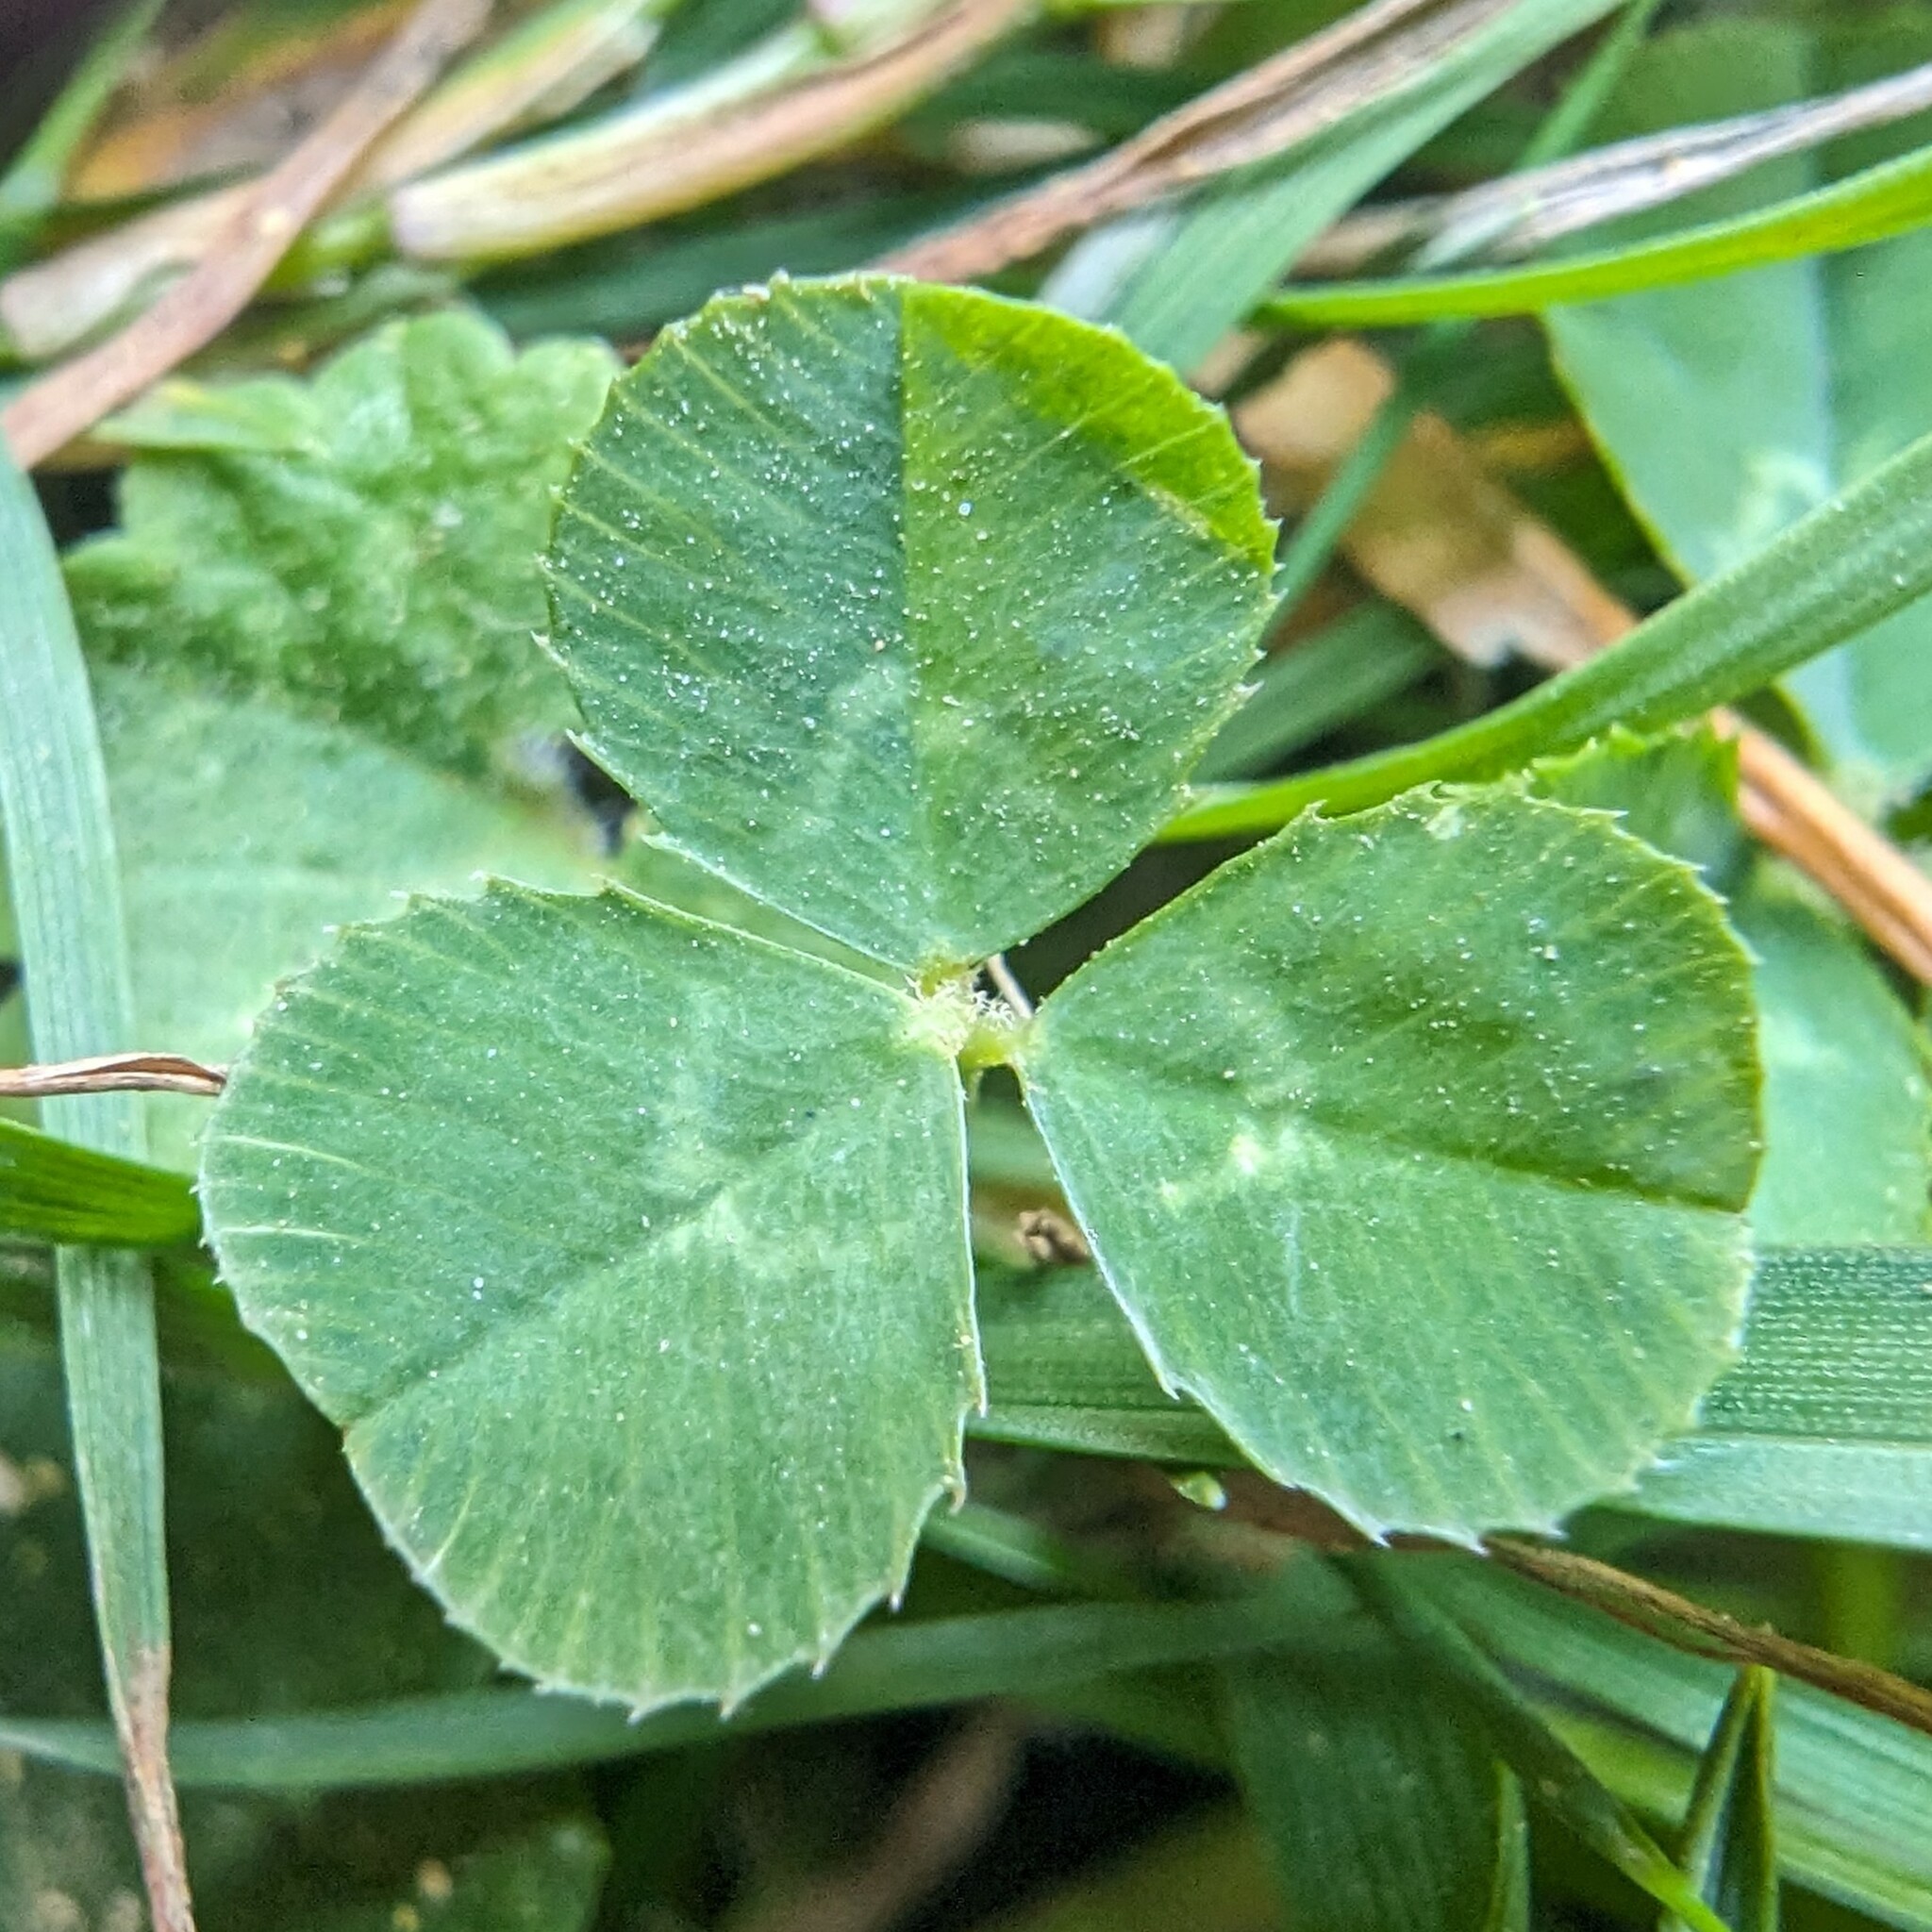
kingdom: Plantae
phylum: Tracheophyta
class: Magnoliopsida
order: Fabales
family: Fabaceae
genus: Trifolium
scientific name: Trifolium repens
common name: White clover
